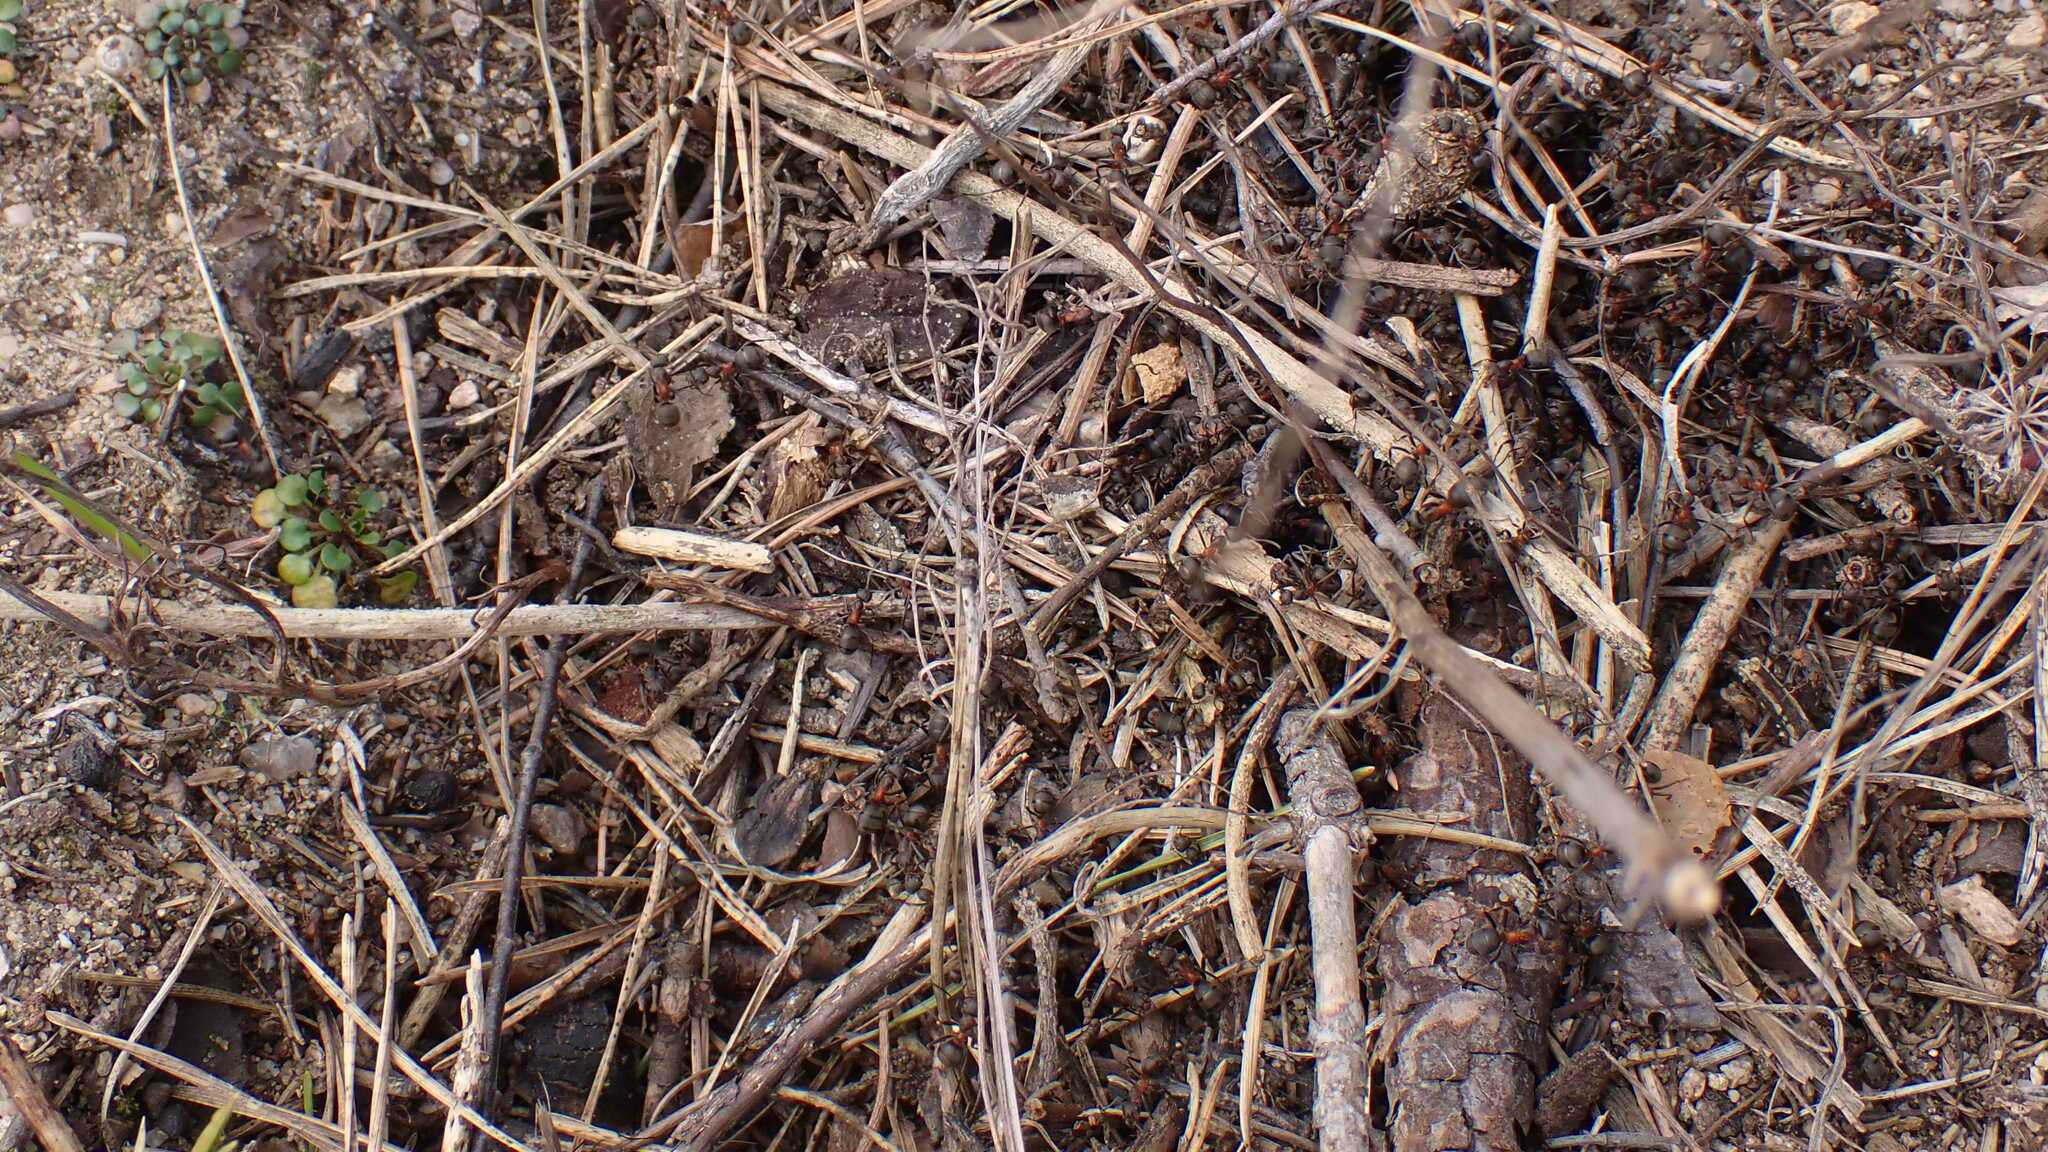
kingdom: Animalia
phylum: Arthropoda
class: Insecta
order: Hymenoptera
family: Formicidae
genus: Formica
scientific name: Formica pratensis
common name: European red wood ant
